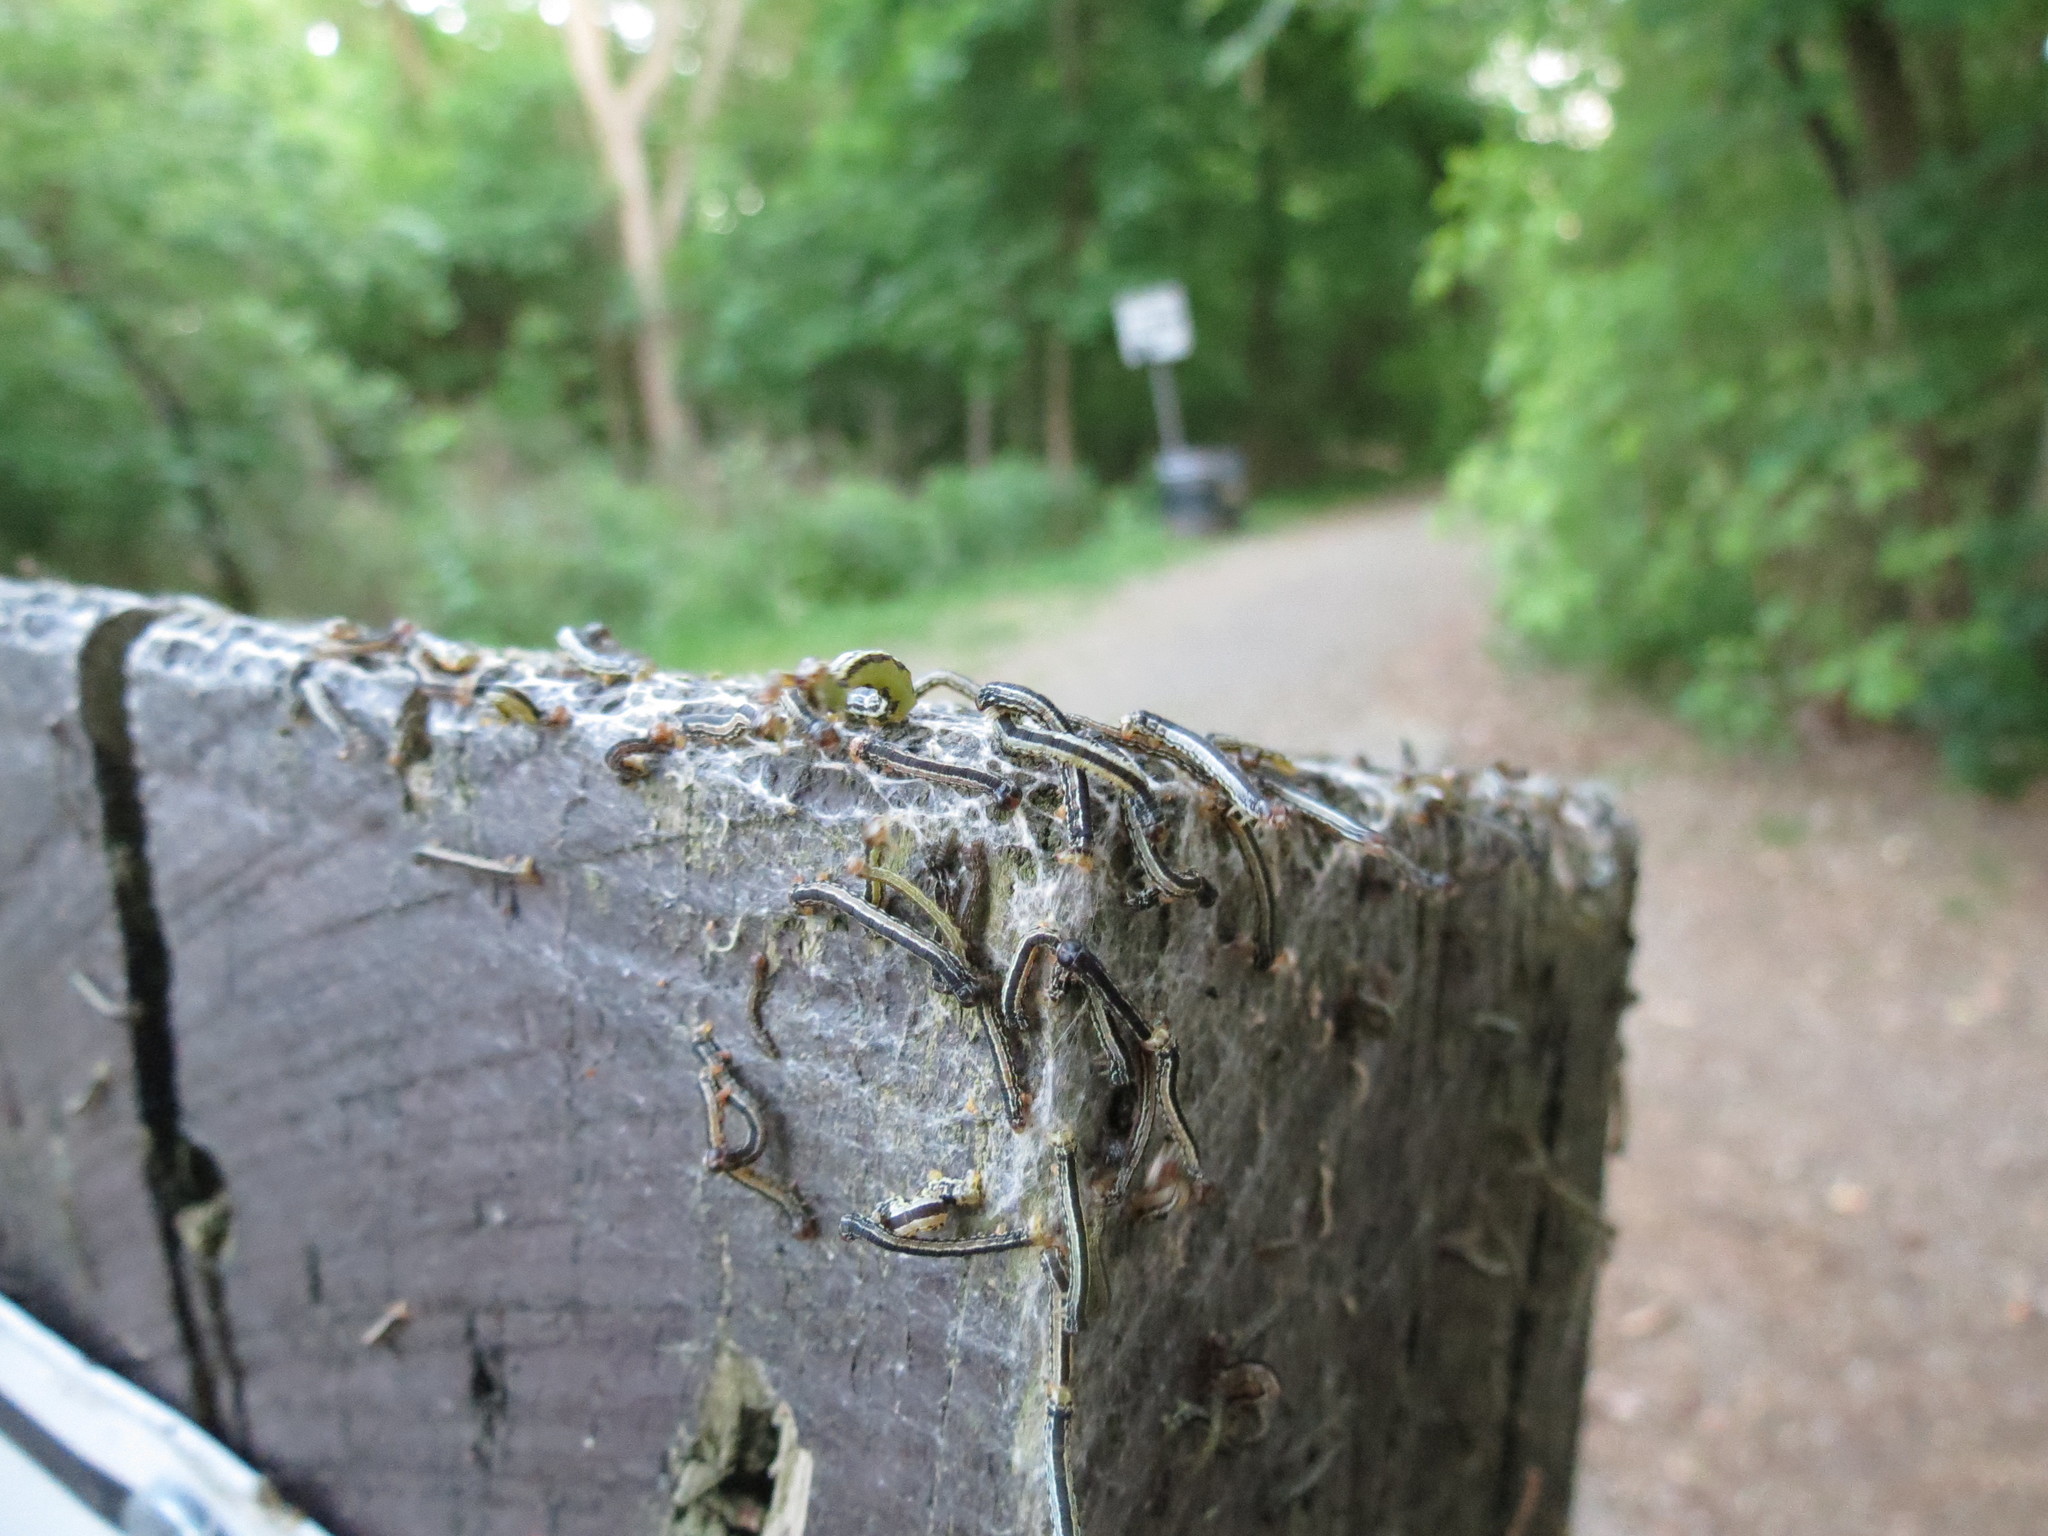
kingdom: Animalia
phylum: Arthropoda
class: Insecta
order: Lepidoptera
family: Geometridae
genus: Alsophila
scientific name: Alsophila pometaria
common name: Fall cankerworm
